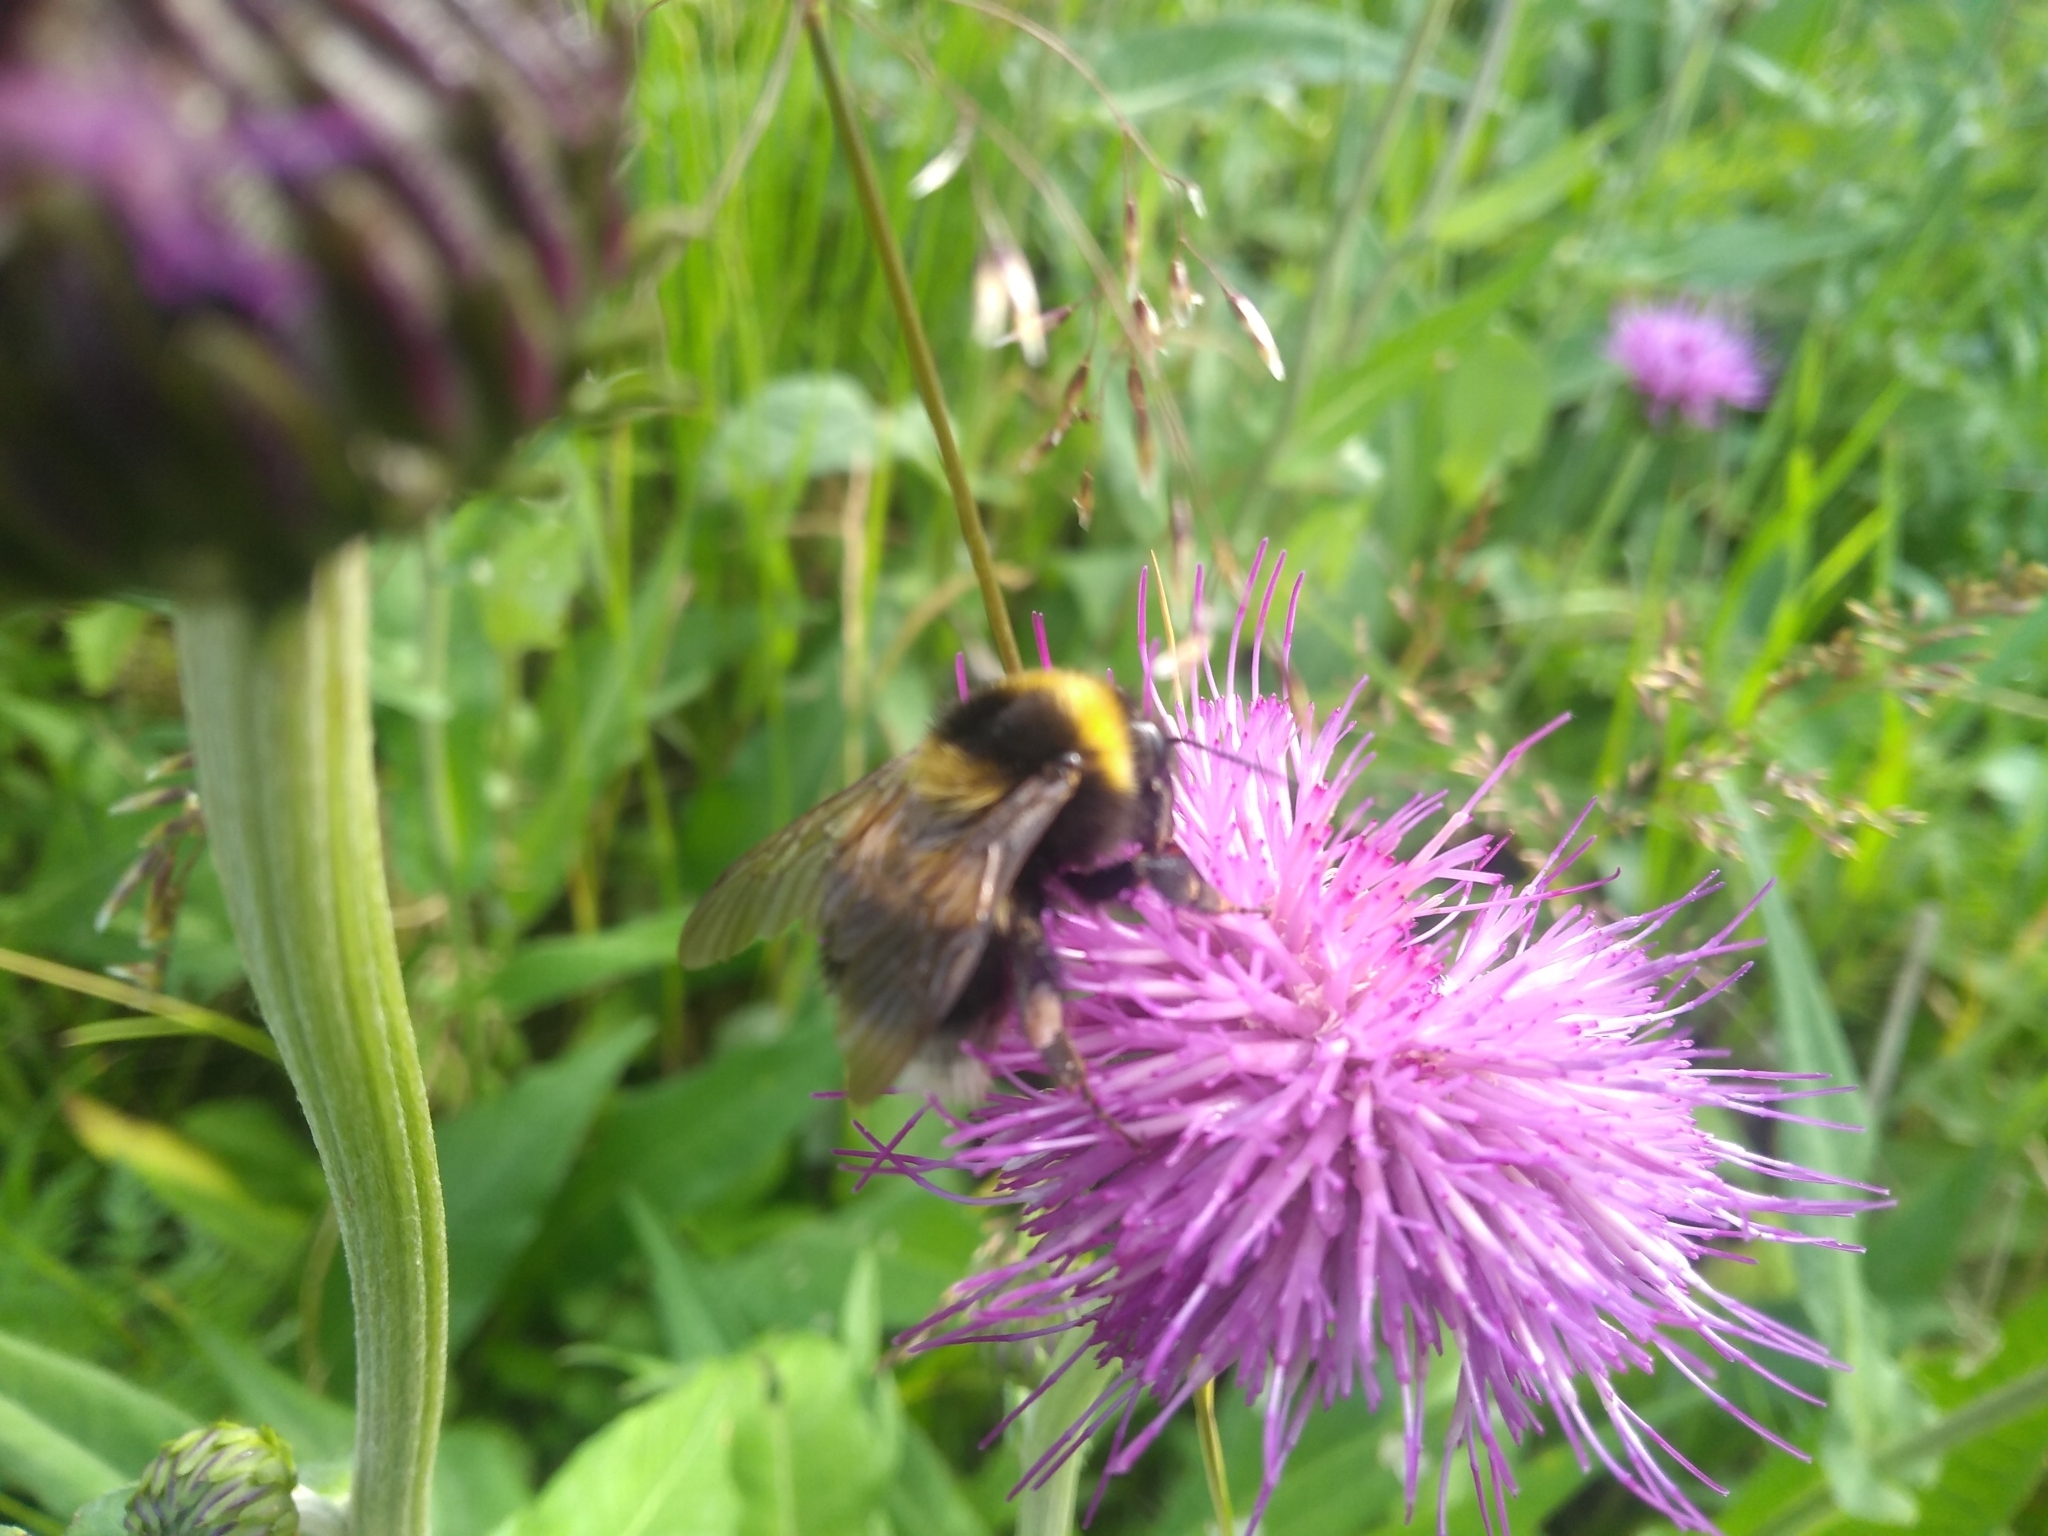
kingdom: Animalia
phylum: Arthropoda
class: Insecta
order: Hymenoptera
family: Apidae
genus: Bombus
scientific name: Bombus hortorum
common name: Garden bumblebee
